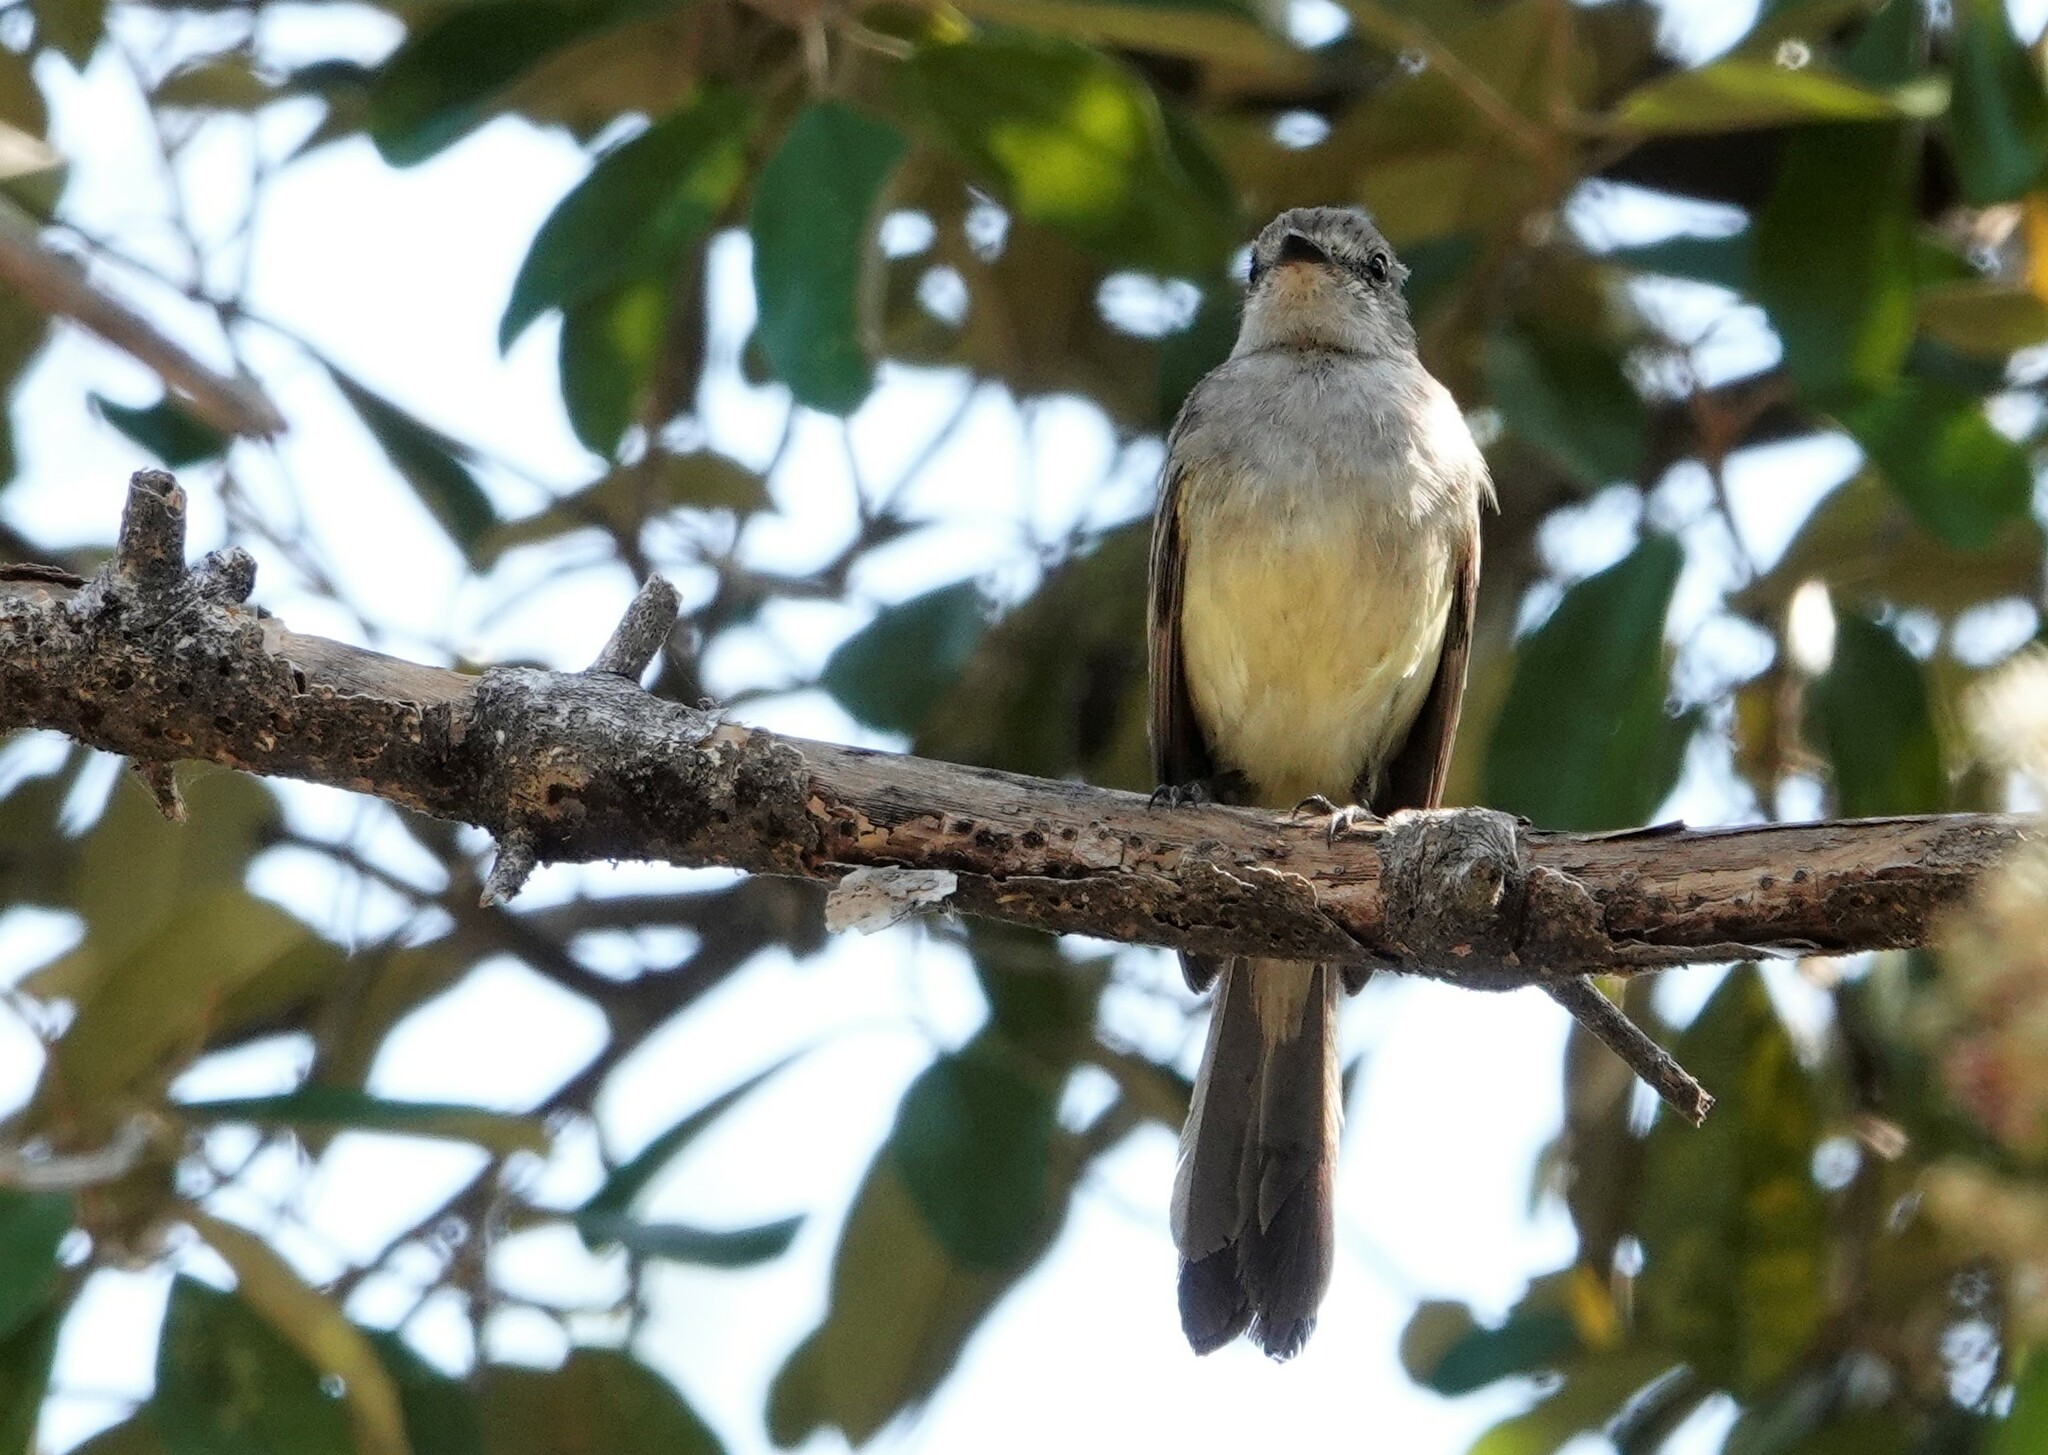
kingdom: Animalia
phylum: Chordata
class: Aves
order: Passeriformes
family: Tyrannidae
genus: Sublegatus
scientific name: Sublegatus arenarum
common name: Northern scrub-flycatcher
